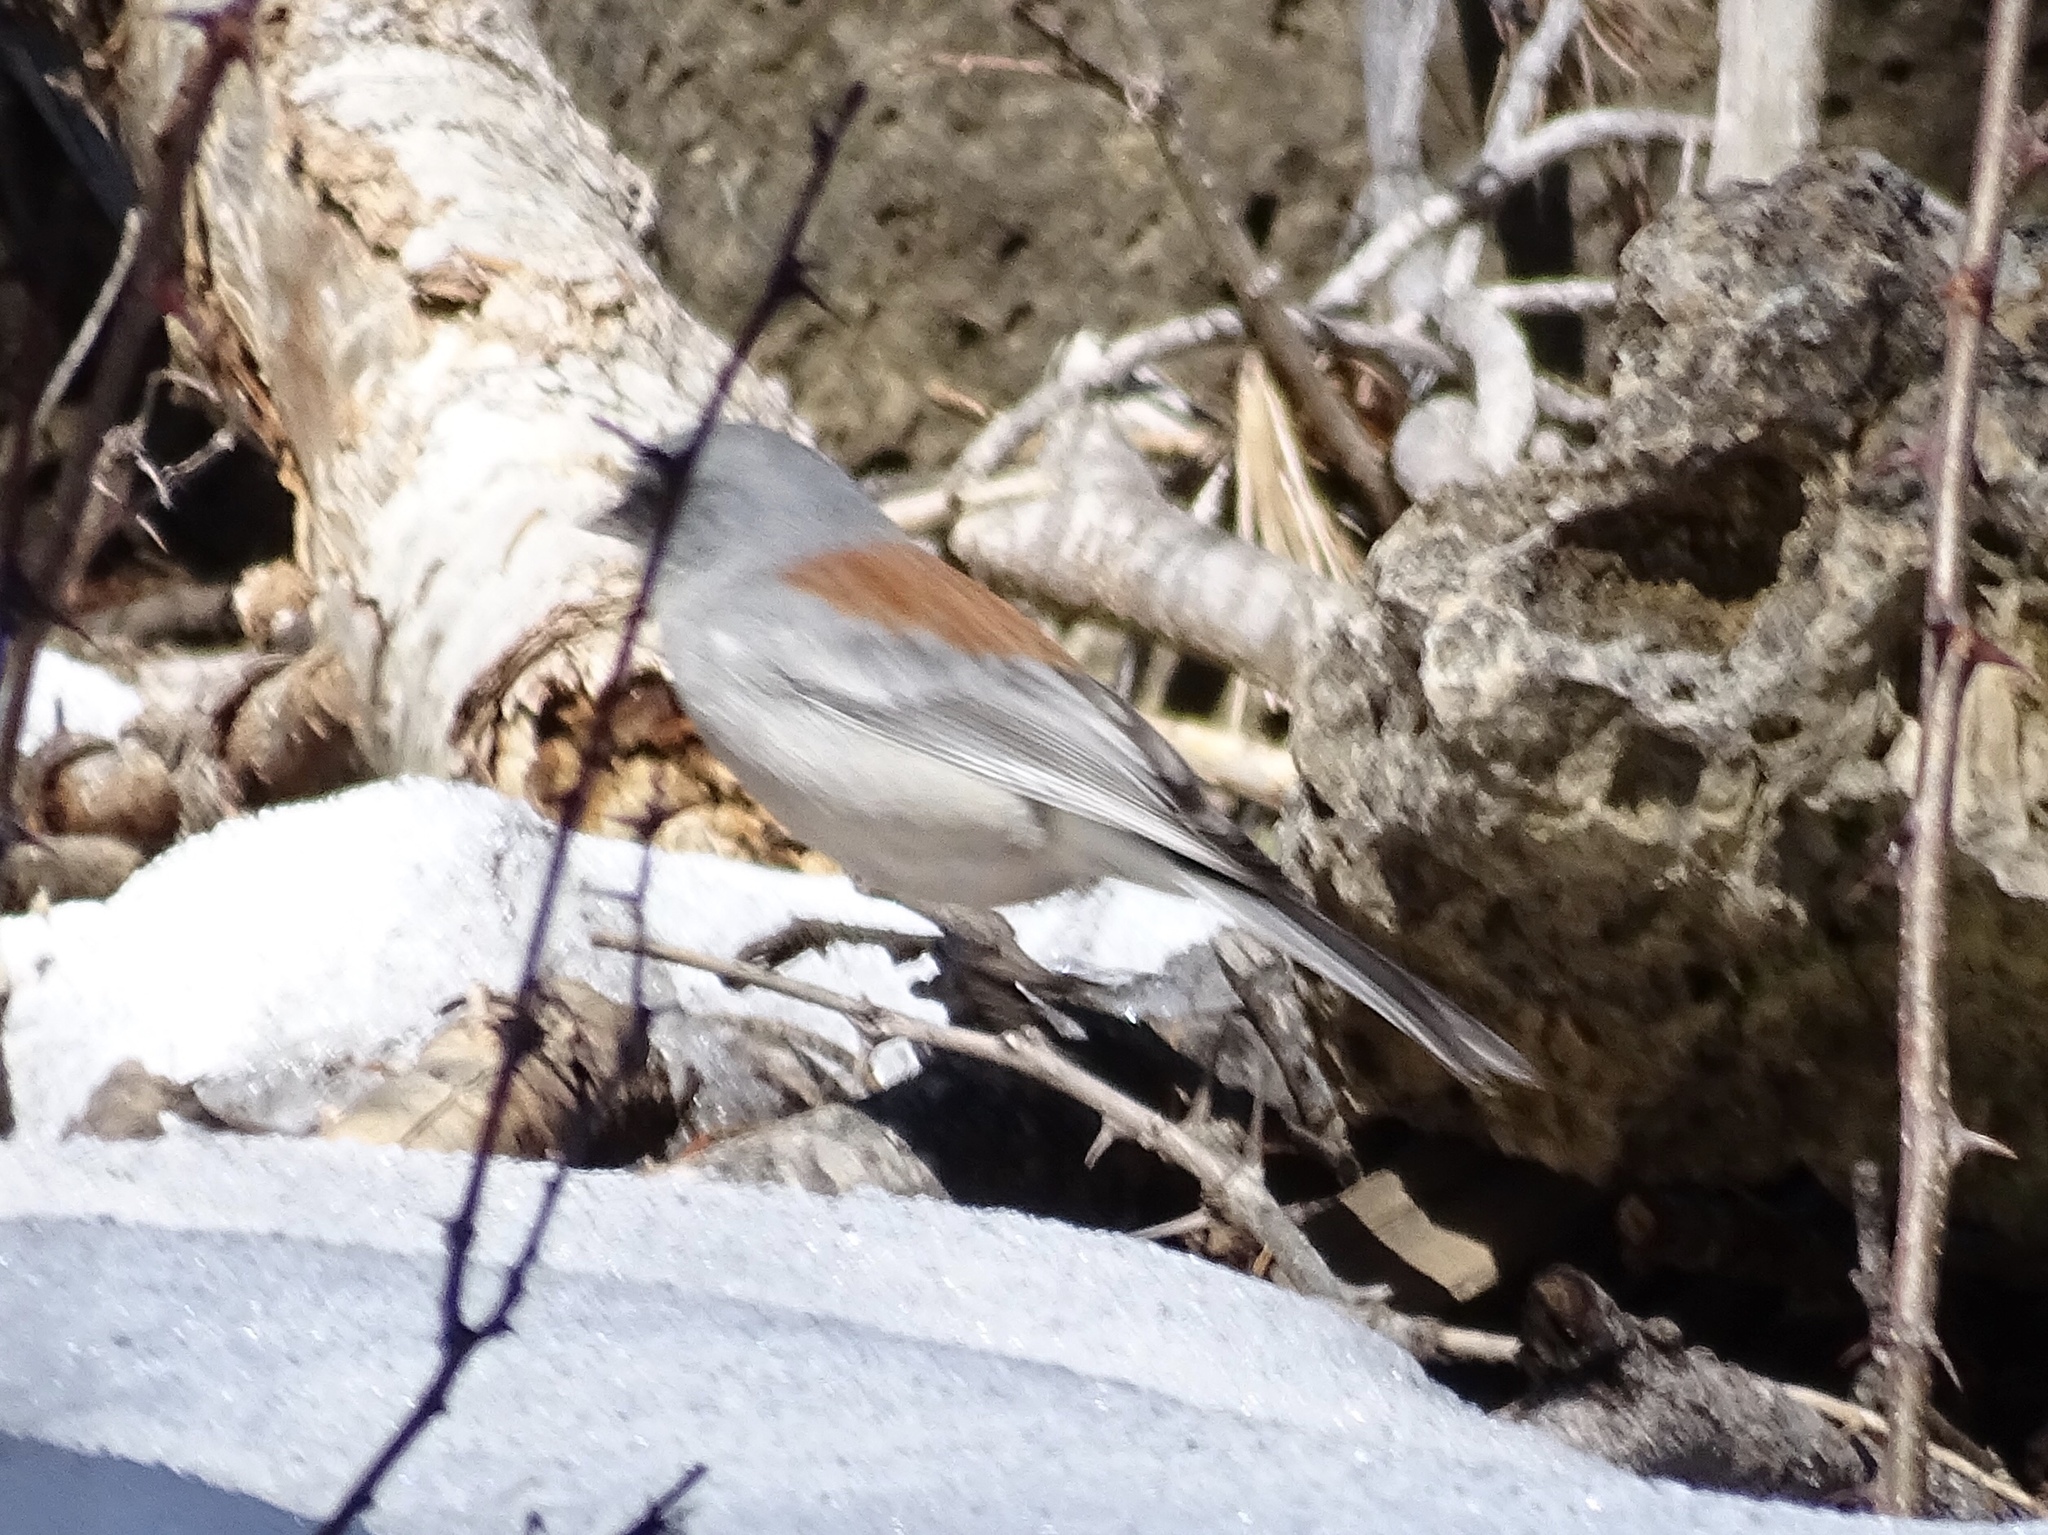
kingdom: Animalia
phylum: Chordata
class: Aves
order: Passeriformes
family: Passerellidae
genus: Junco
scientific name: Junco hyemalis
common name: Dark-eyed junco
